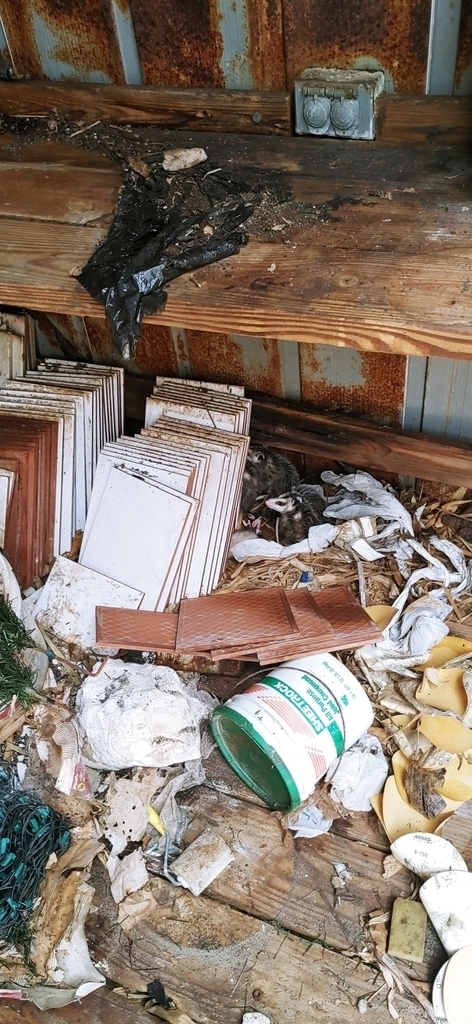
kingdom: Animalia
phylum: Chordata
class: Mammalia
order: Didelphimorphia
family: Didelphidae
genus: Didelphis
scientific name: Didelphis virginiana
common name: Virginia opossum
